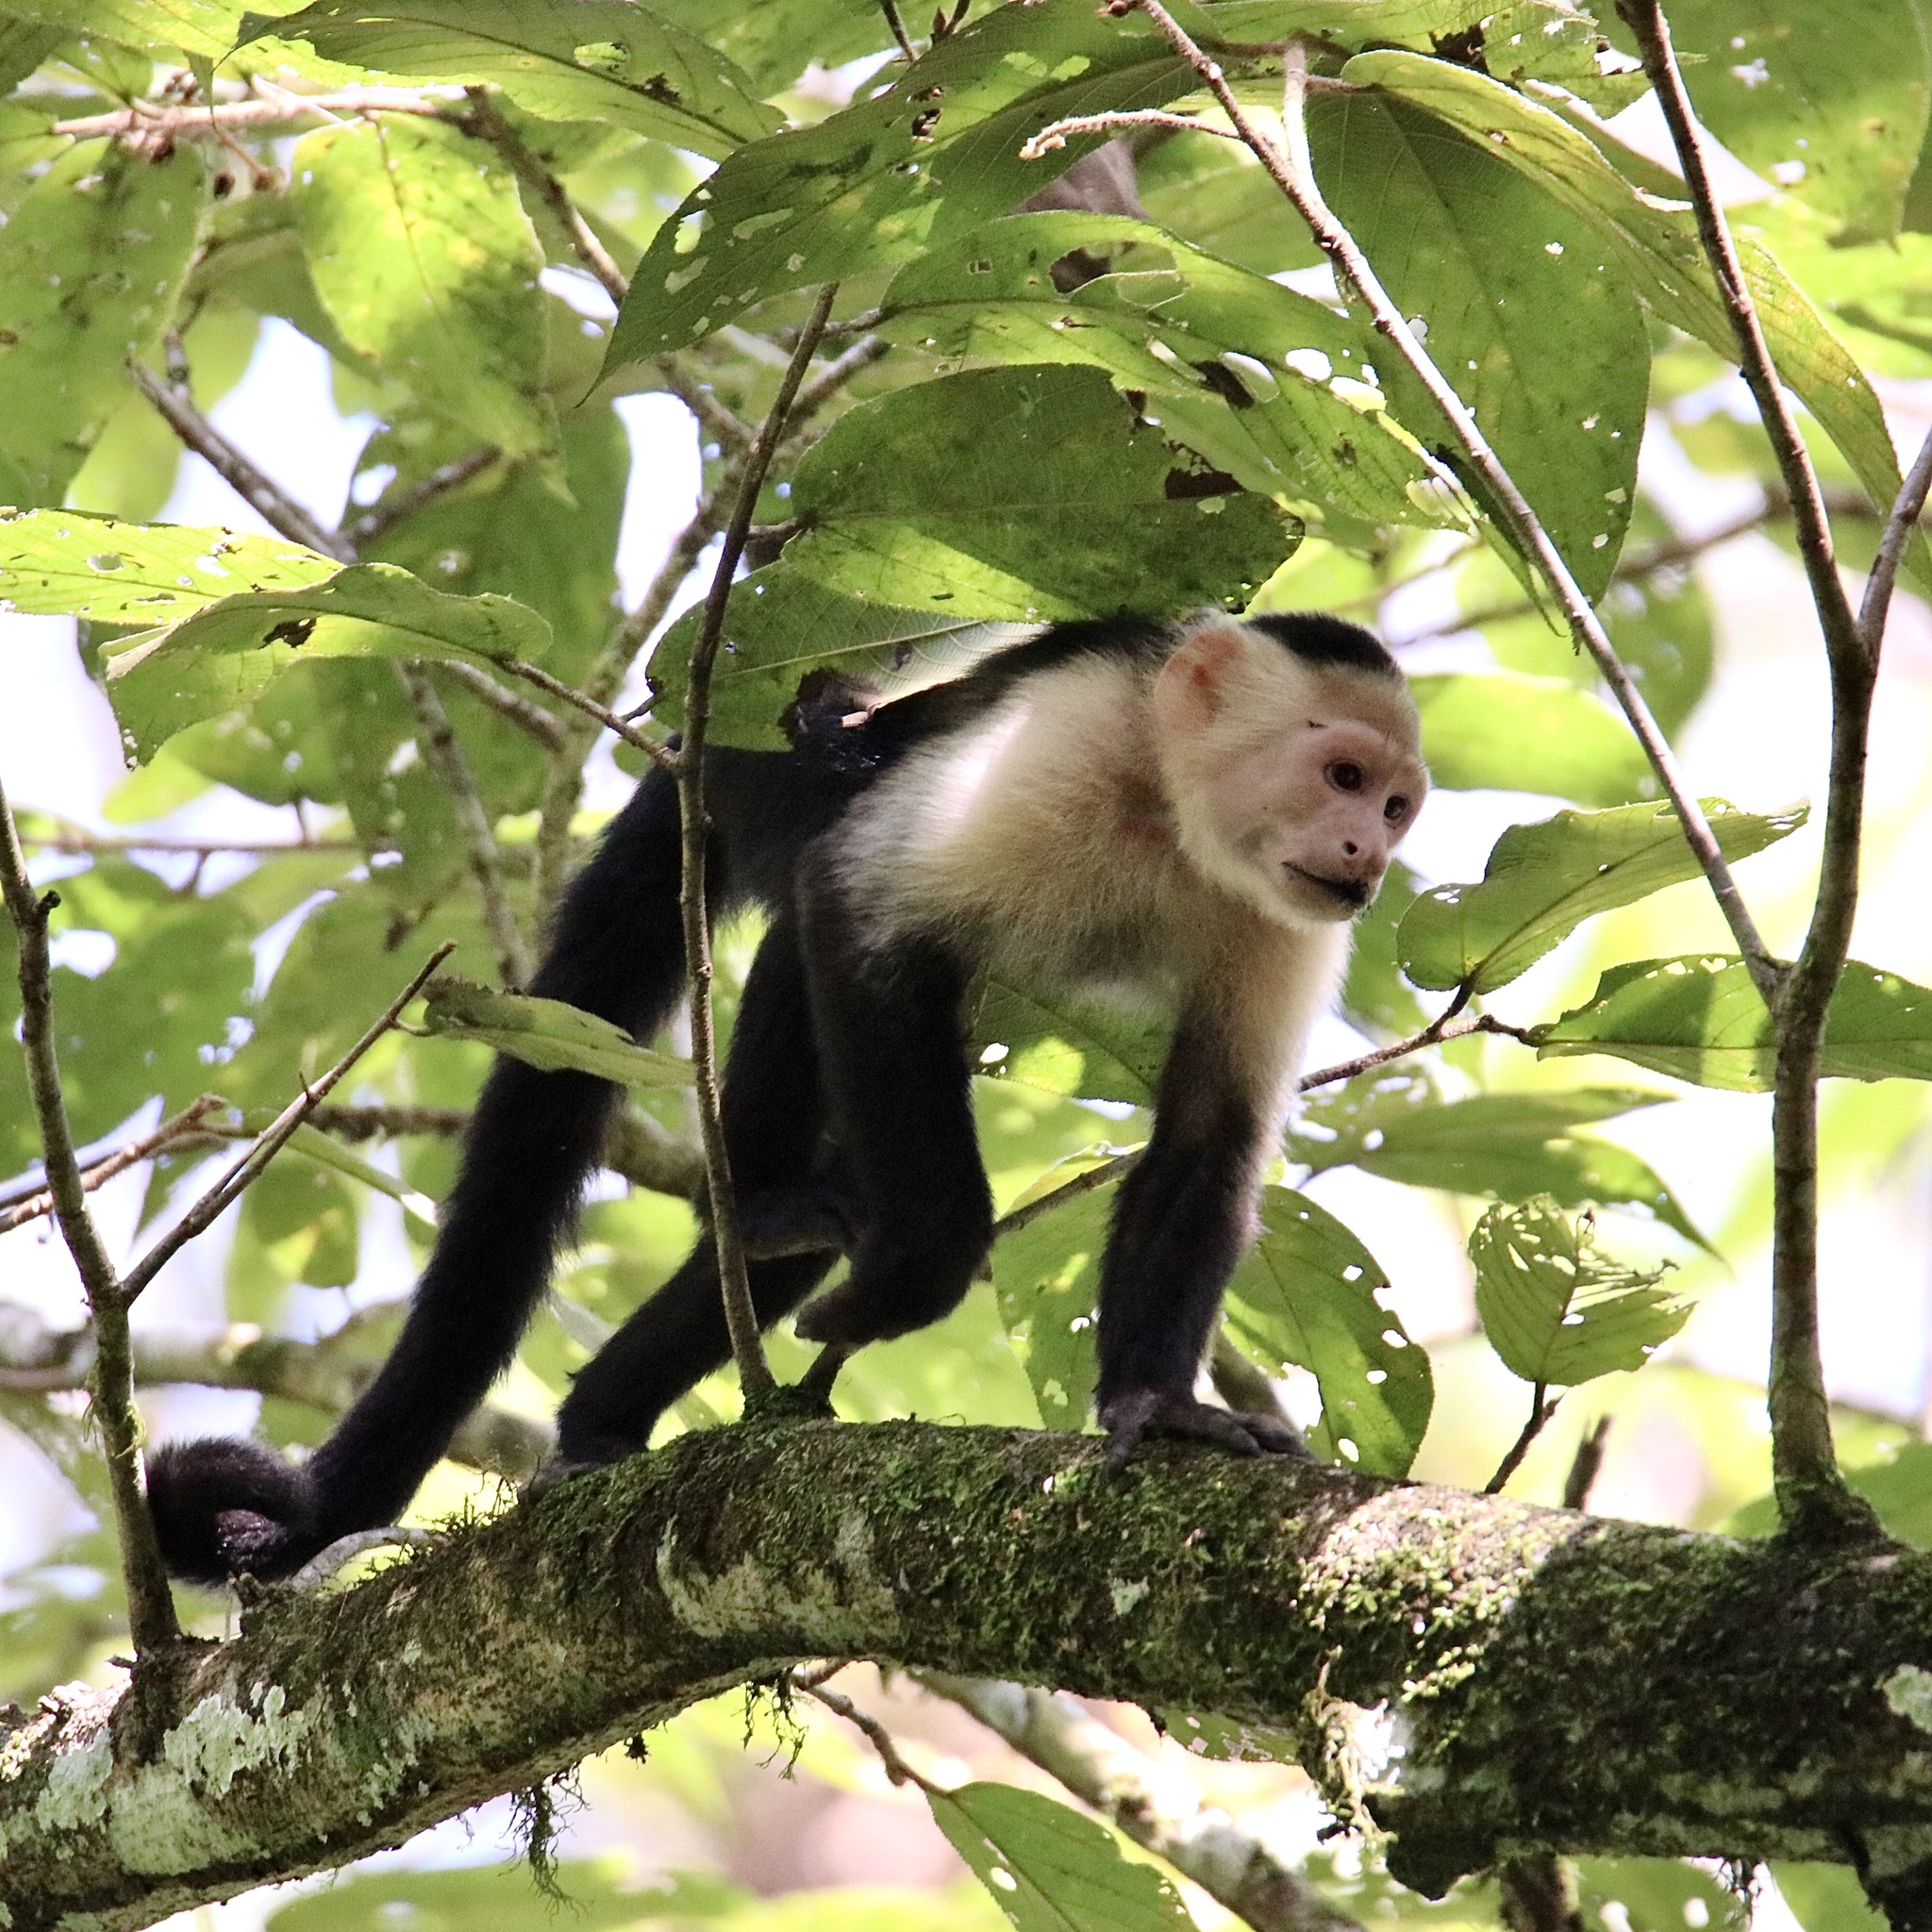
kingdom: Animalia
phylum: Chordata
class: Mammalia
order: Primates
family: Cebidae
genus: Cebus
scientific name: Cebus imitator
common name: Panamanian white-faced capuchin
